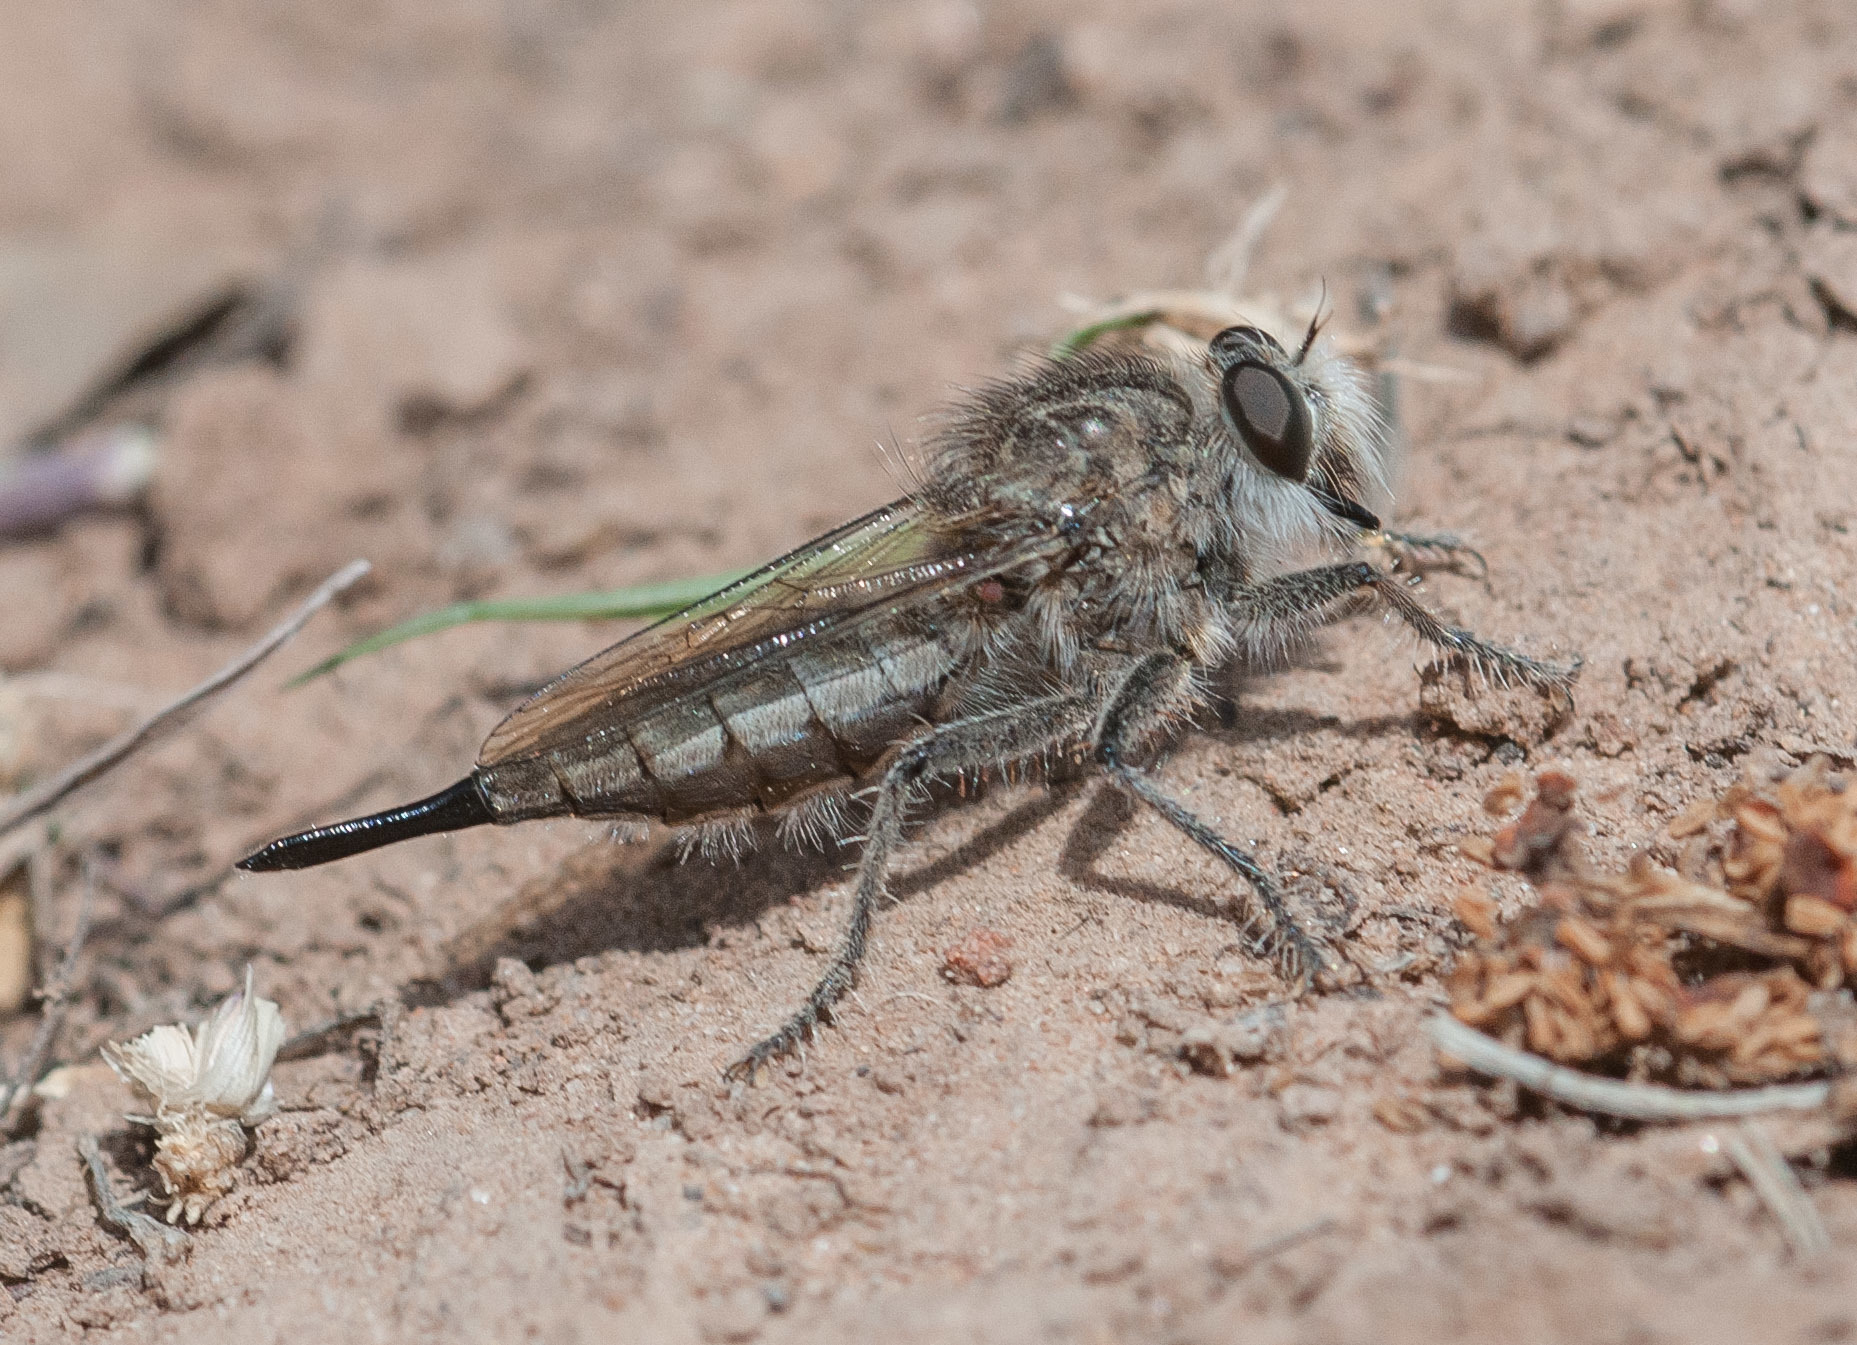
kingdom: Animalia
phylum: Arthropoda
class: Insecta
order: Diptera
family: Asilidae
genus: Efferia
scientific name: Efferia
